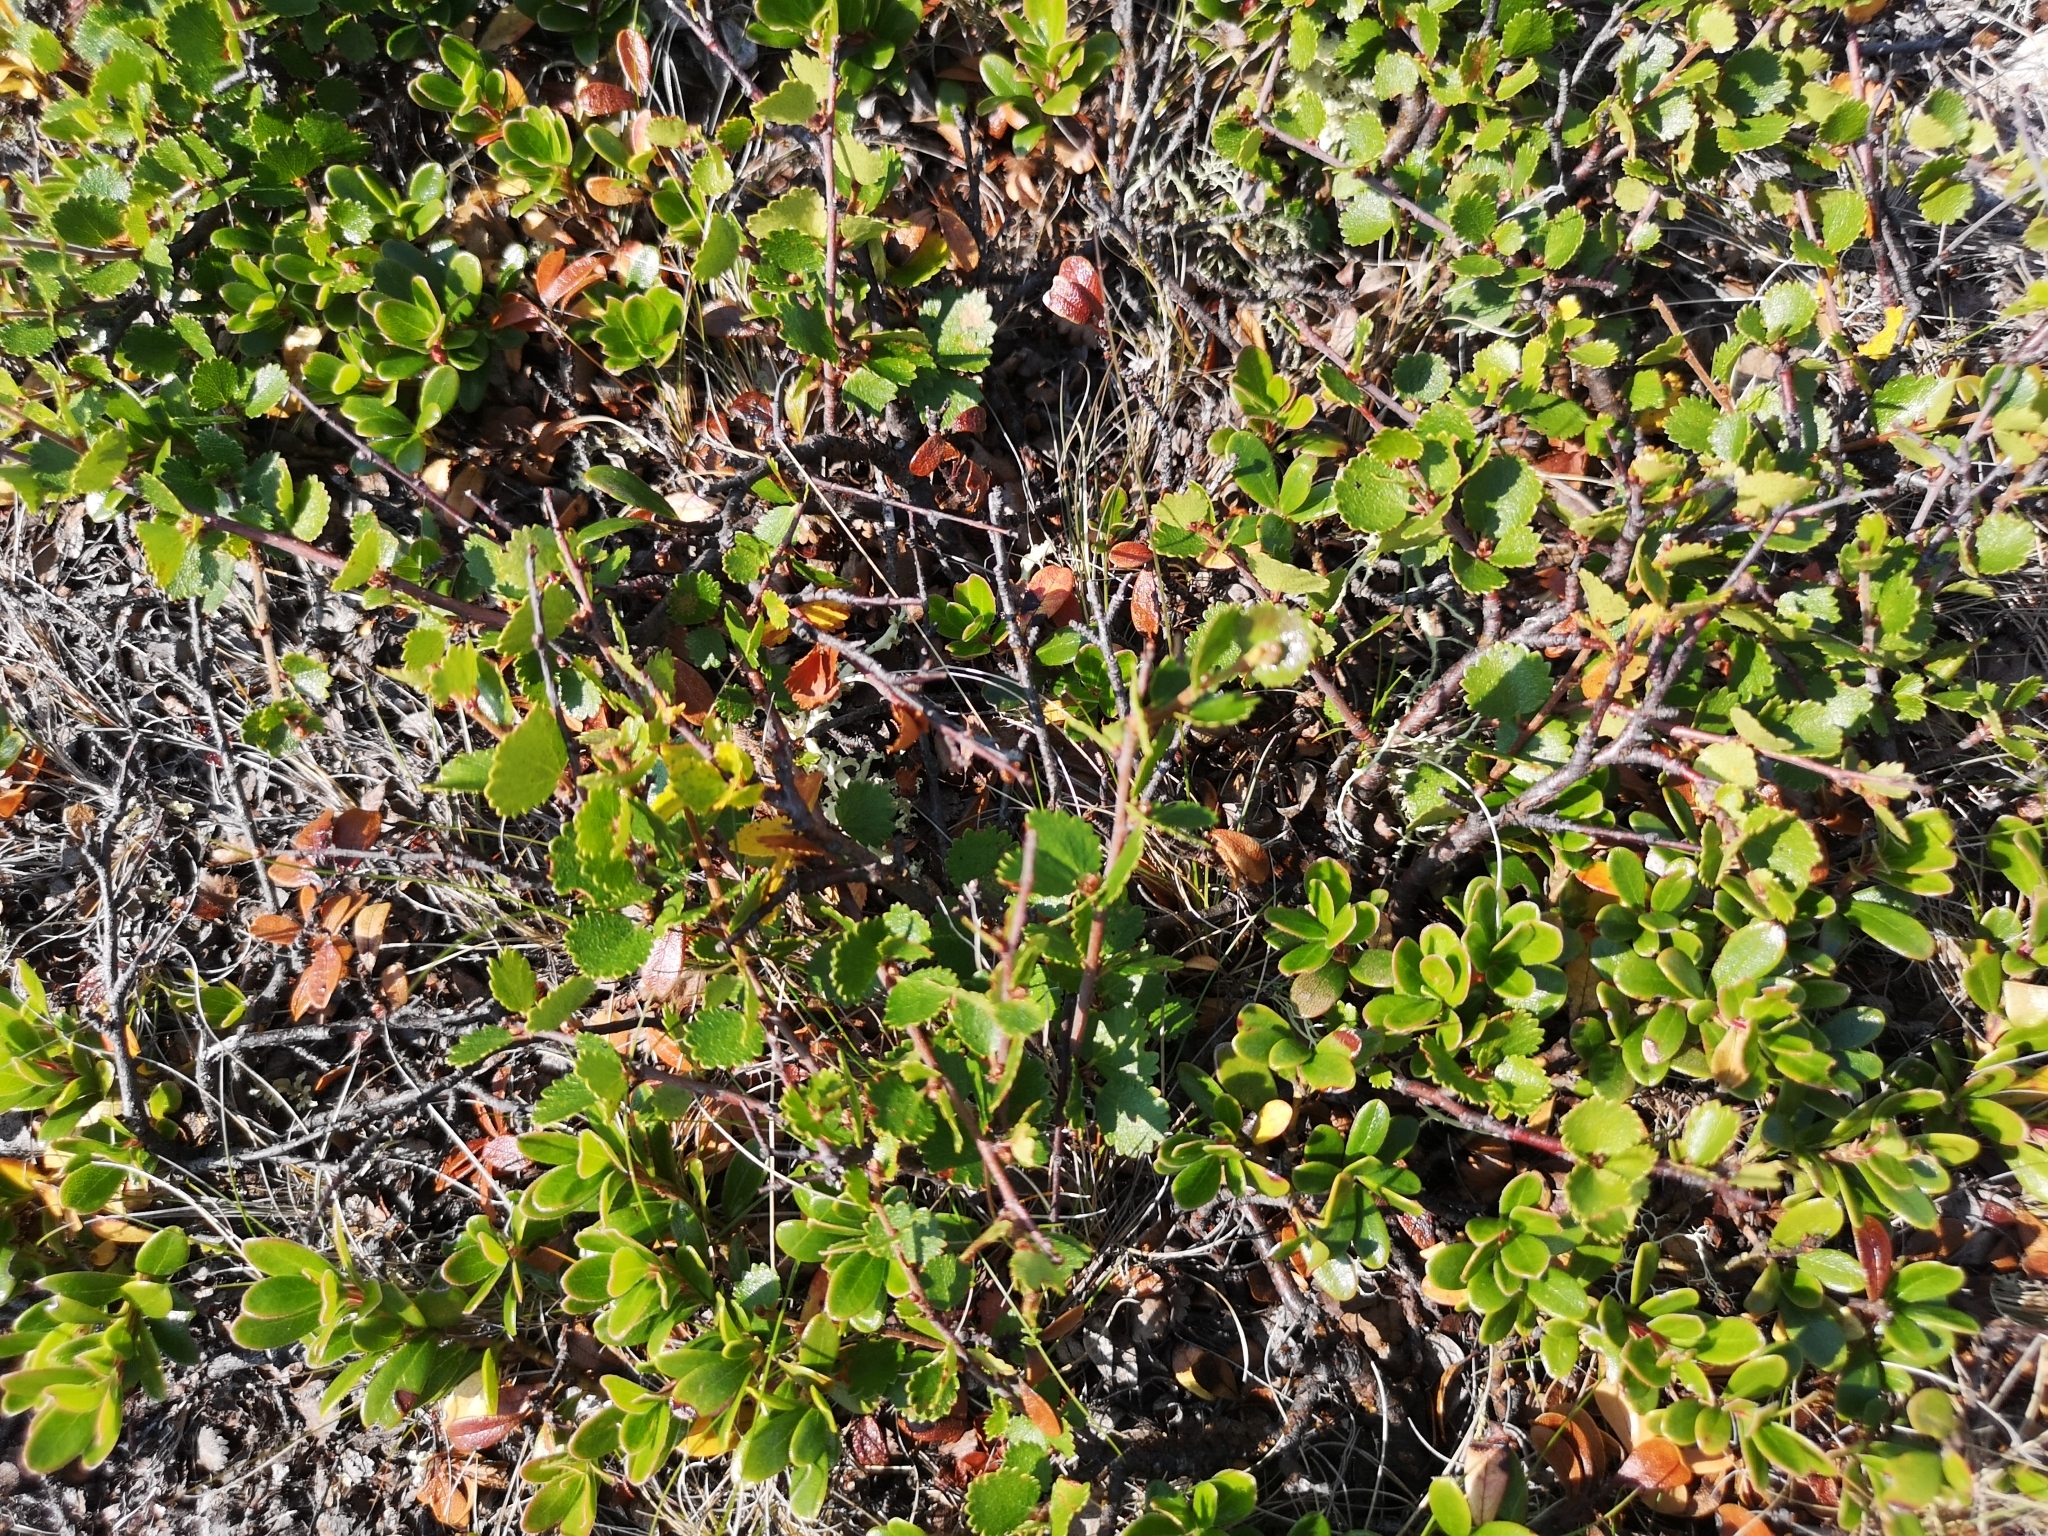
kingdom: Plantae
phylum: Tracheophyta
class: Magnoliopsida
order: Fagales
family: Betulaceae
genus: Betula
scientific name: Betula nana
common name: Arctic dwarf birch
